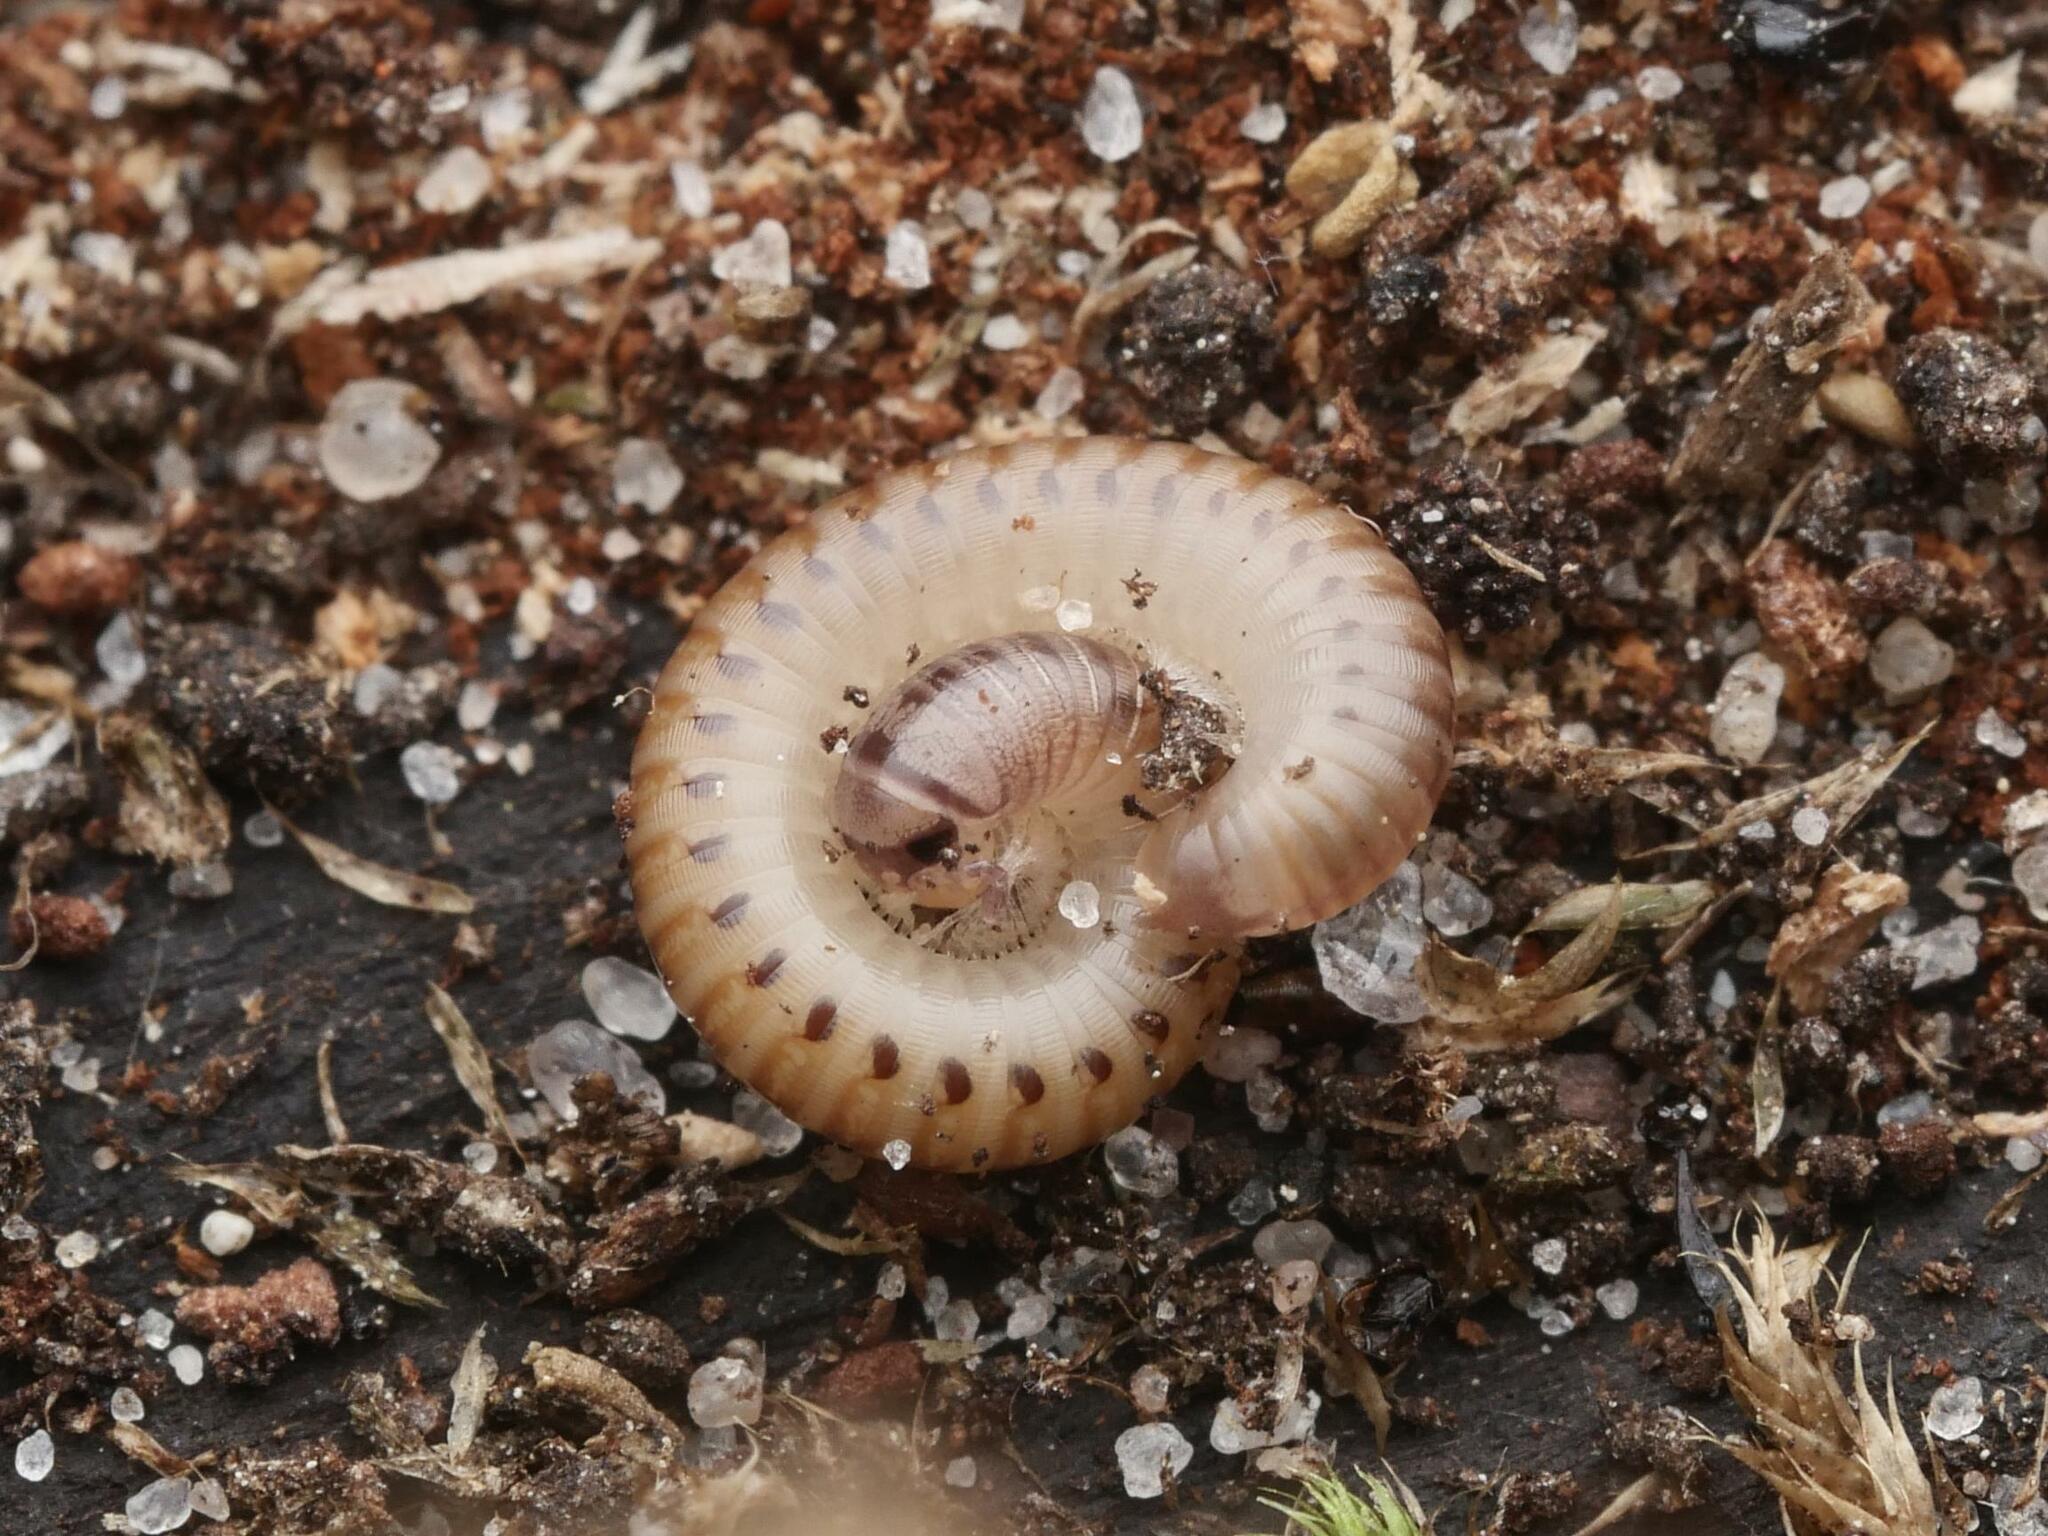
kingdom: Animalia
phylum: Arthropoda
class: Diplopoda
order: Julida
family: Julidae
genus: Cylindroiulus
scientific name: Cylindroiulus punctatus
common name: Blunt-tailed millipede
